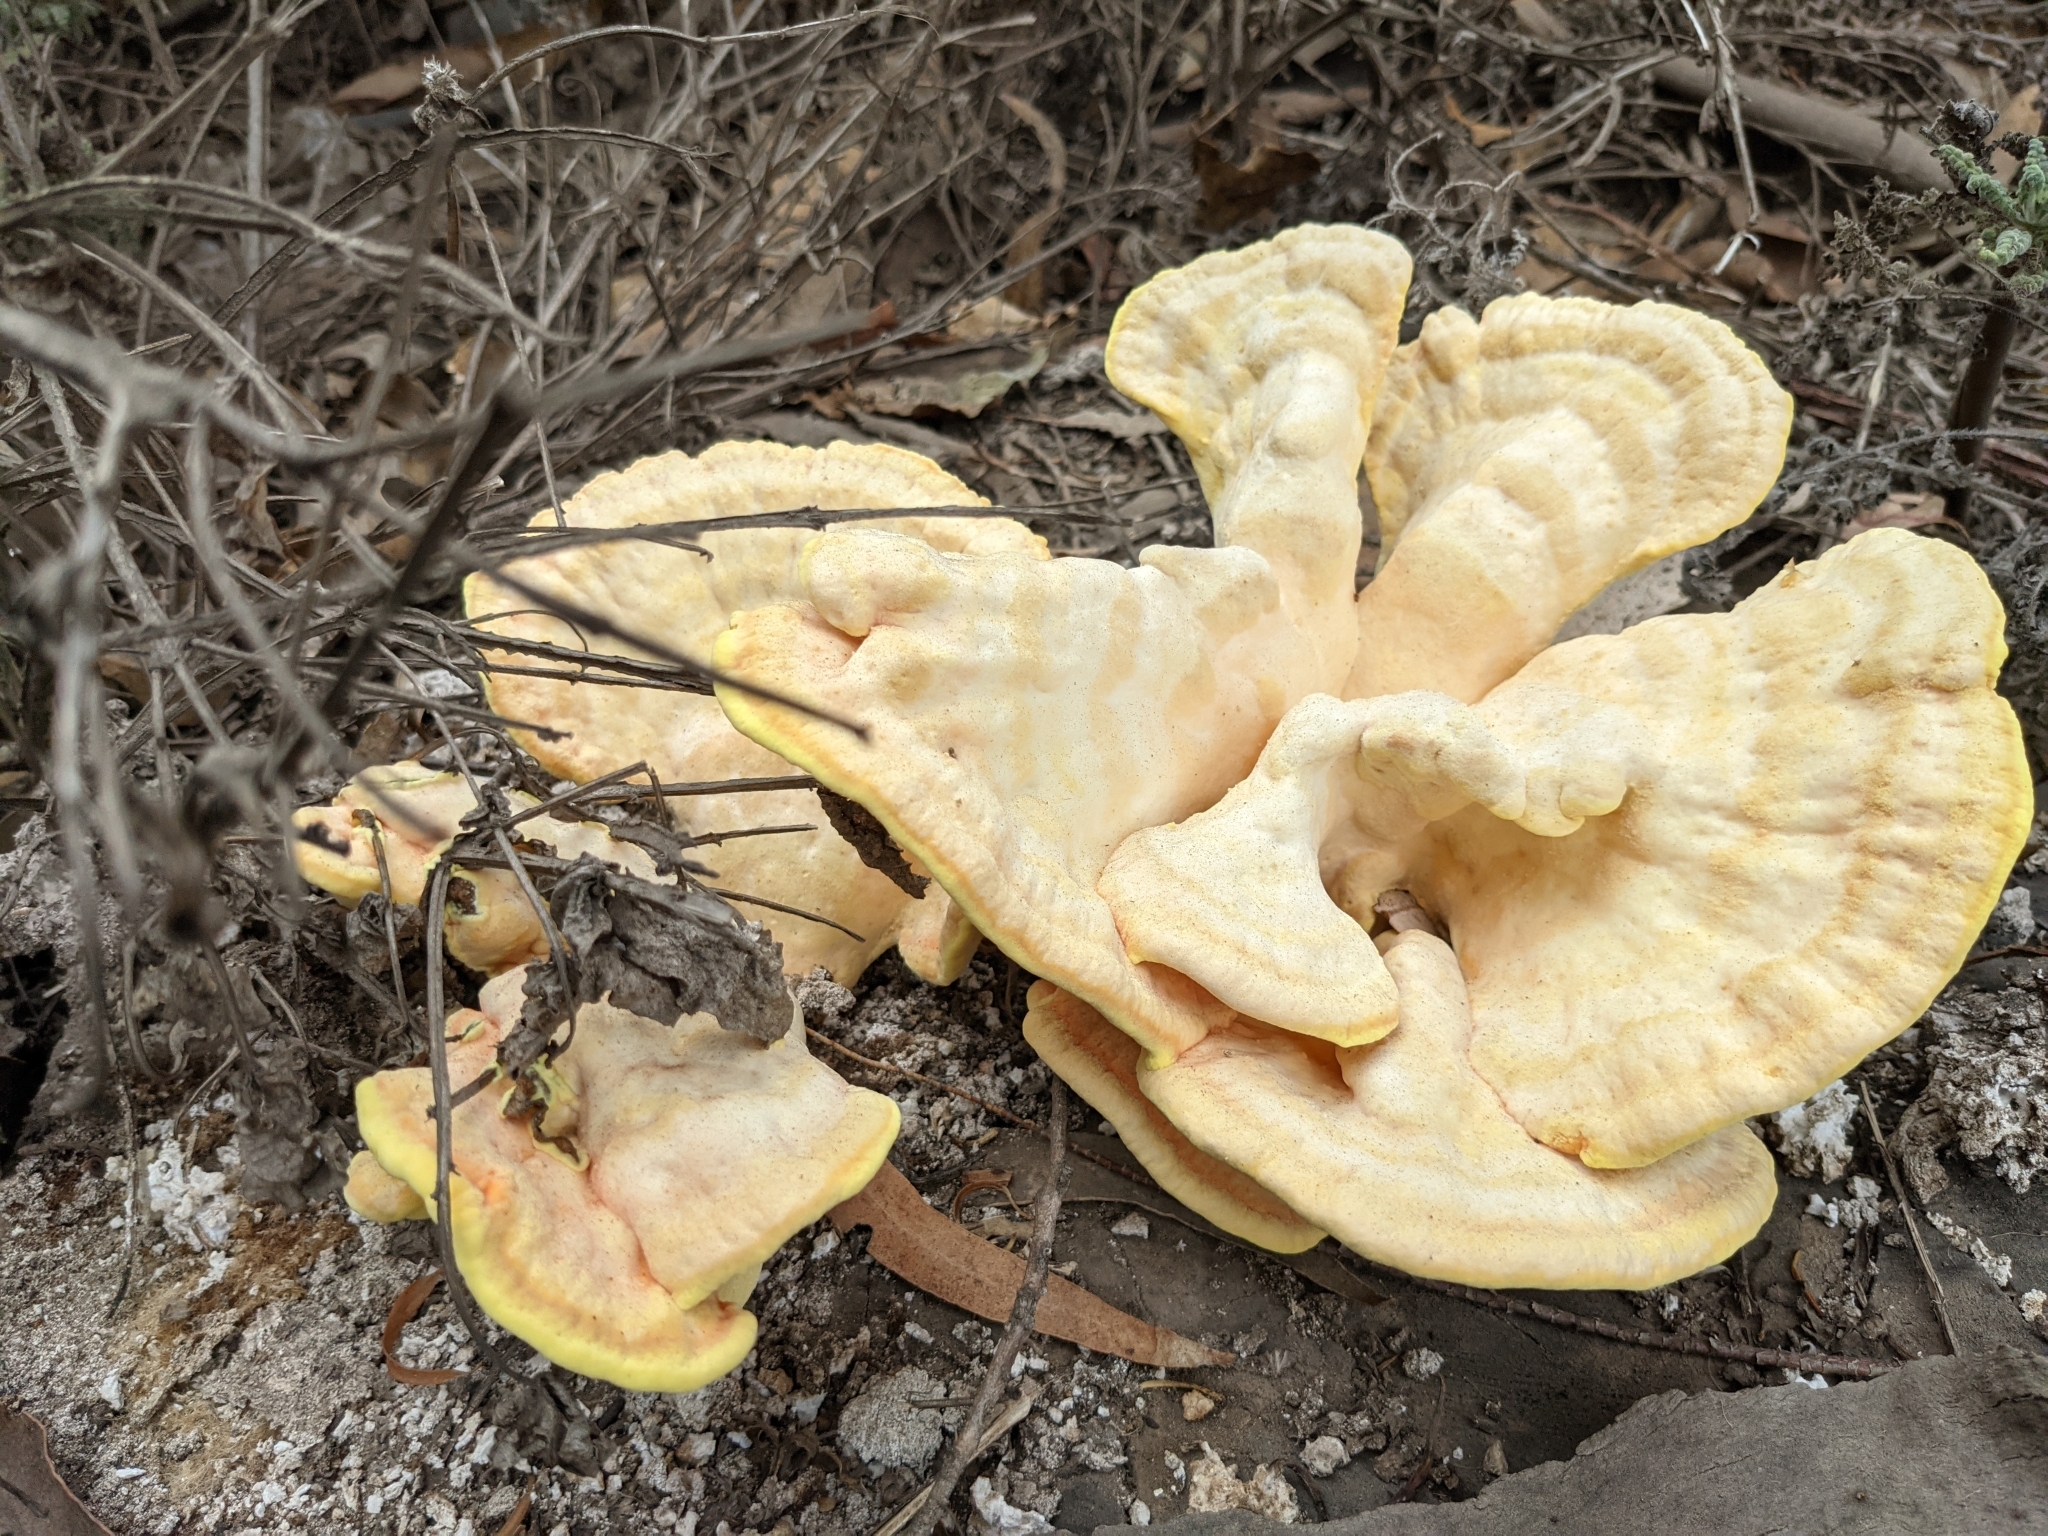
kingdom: Fungi
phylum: Basidiomycota
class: Agaricomycetes
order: Polyporales
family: Laetiporaceae
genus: Laetiporus
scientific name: Laetiporus gilbertsonii
